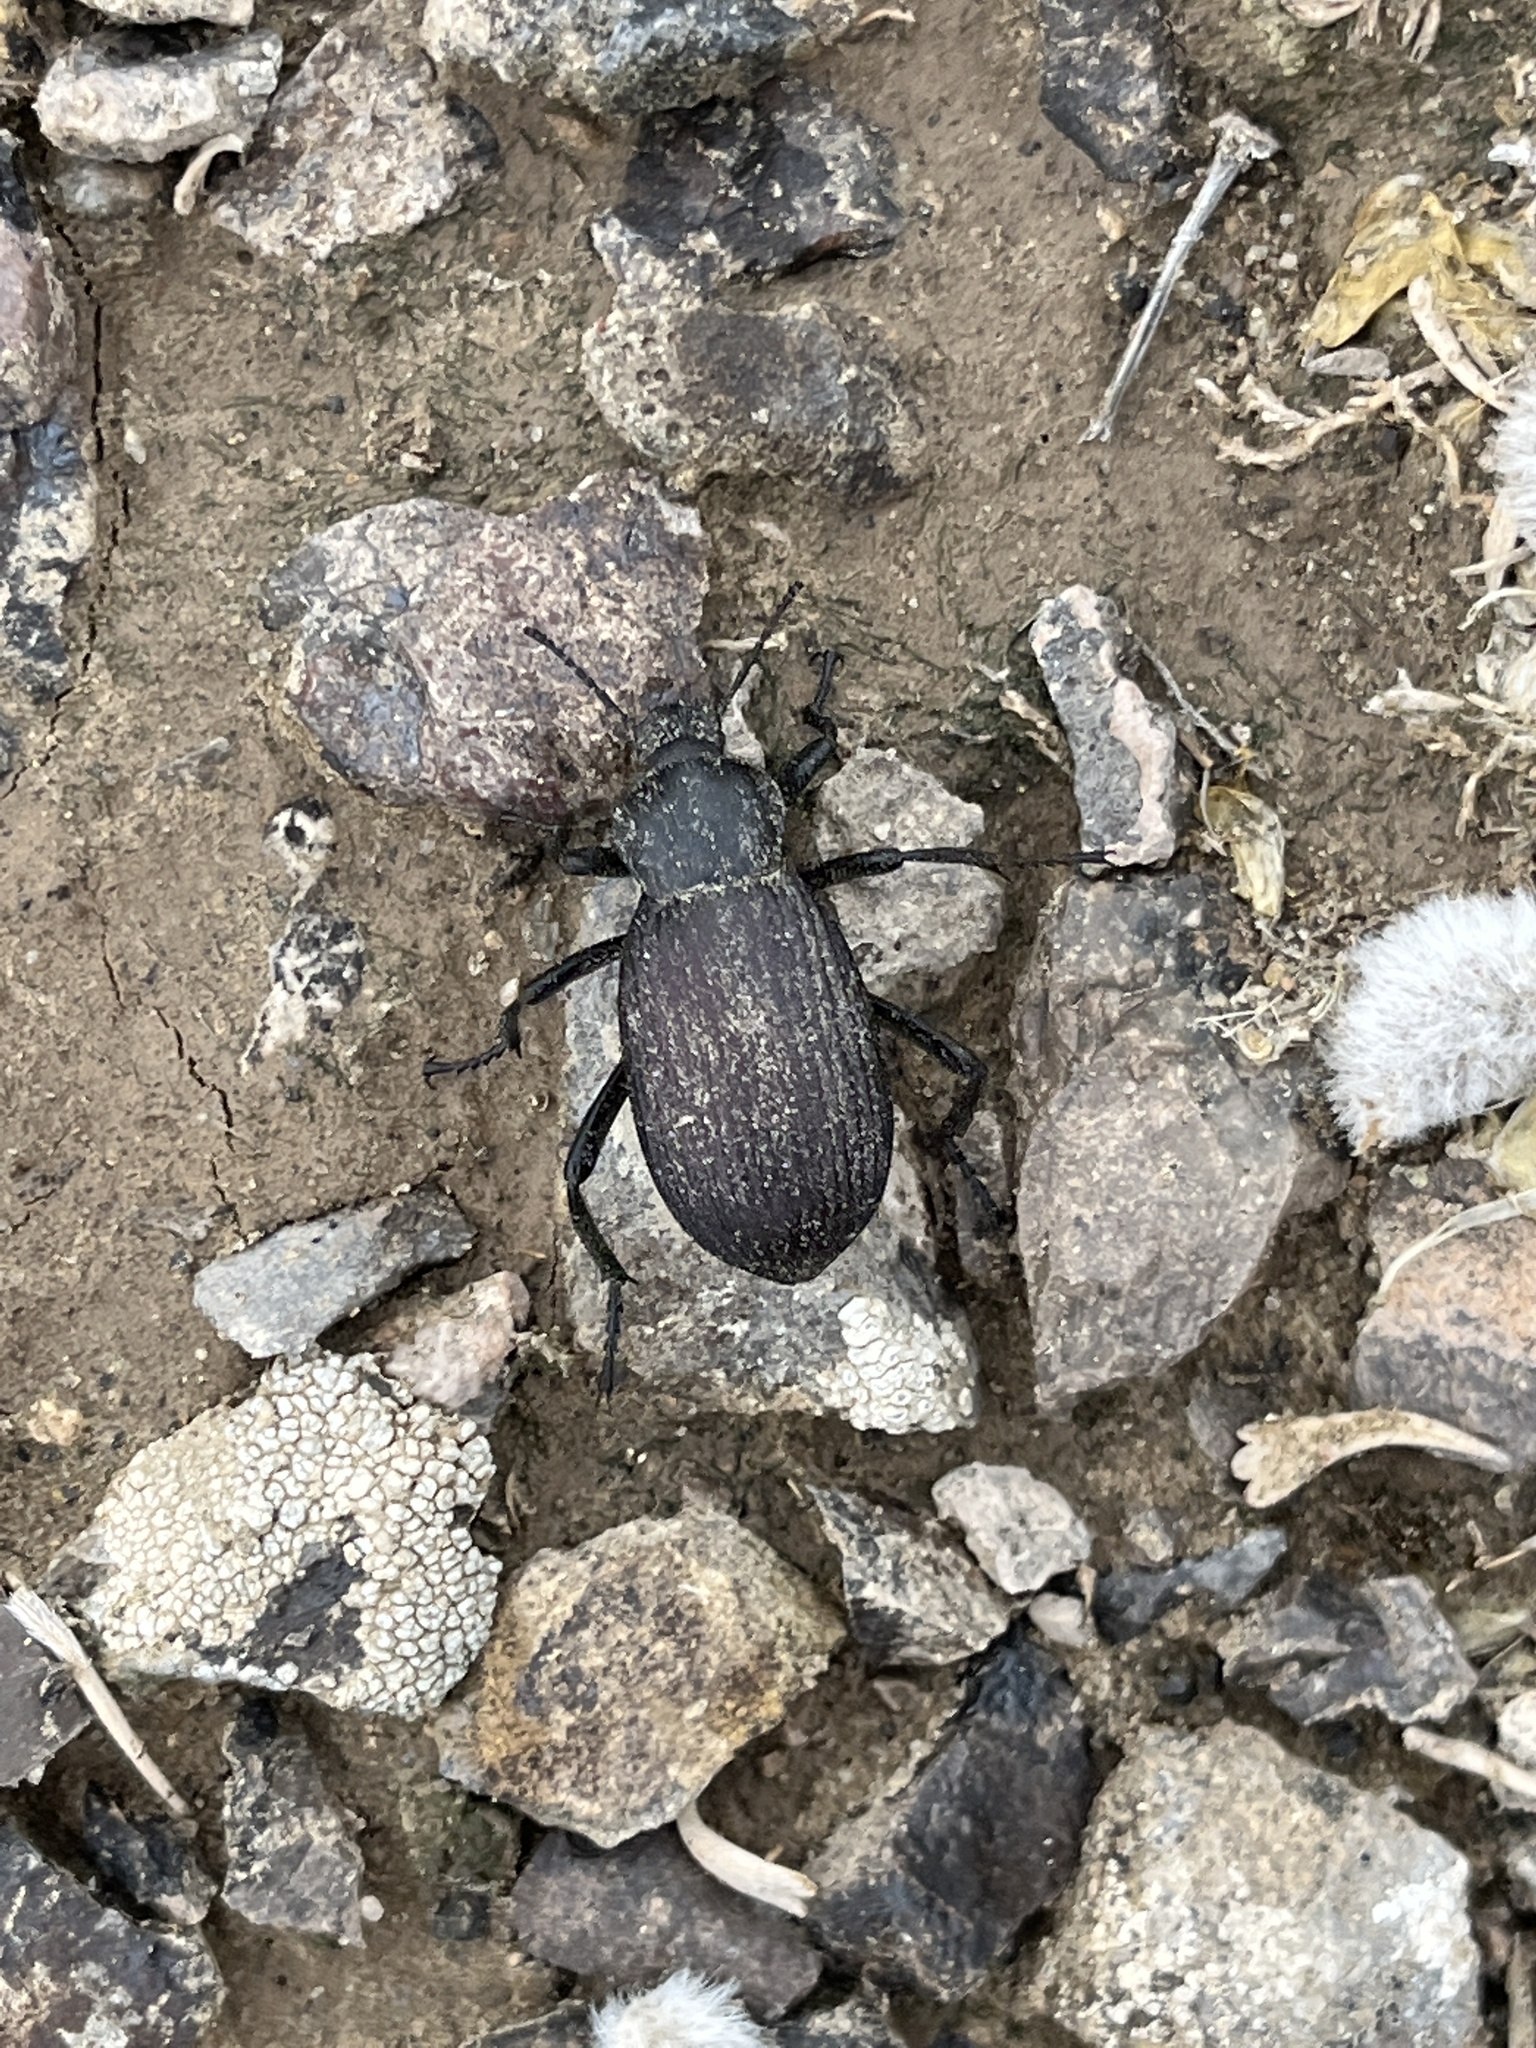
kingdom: Animalia
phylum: Arthropoda
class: Insecta
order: Coleoptera
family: Tenebrionidae
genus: Eleodes
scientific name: Eleodes obscura
